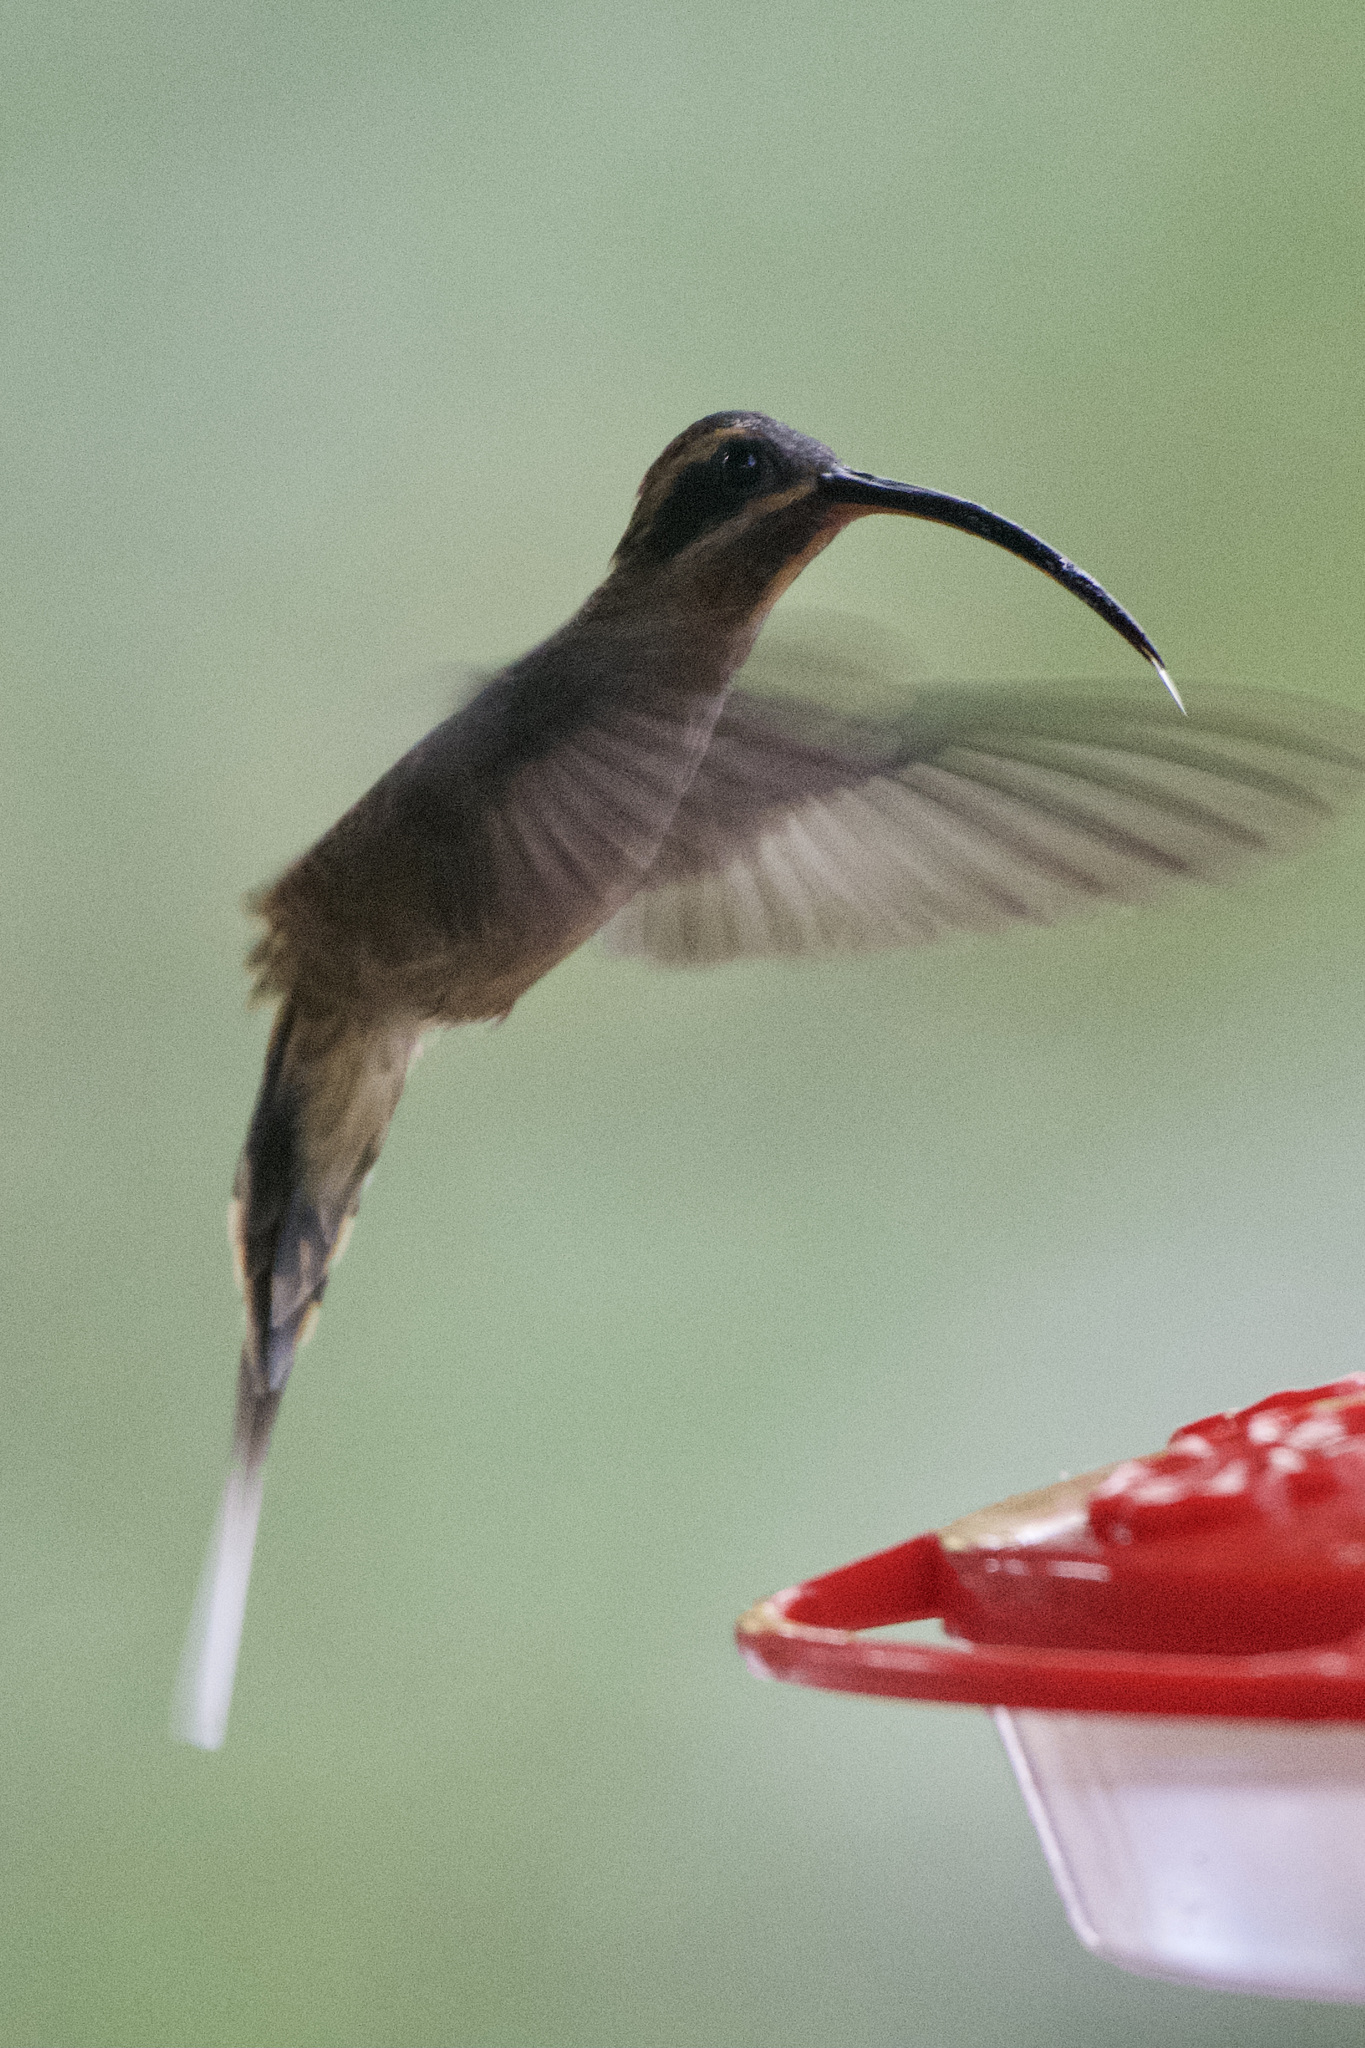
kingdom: Animalia
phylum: Chordata
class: Aves
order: Apodiformes
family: Trochilidae
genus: Phaethornis
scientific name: Phaethornis longirostris
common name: Long-billed hermit
